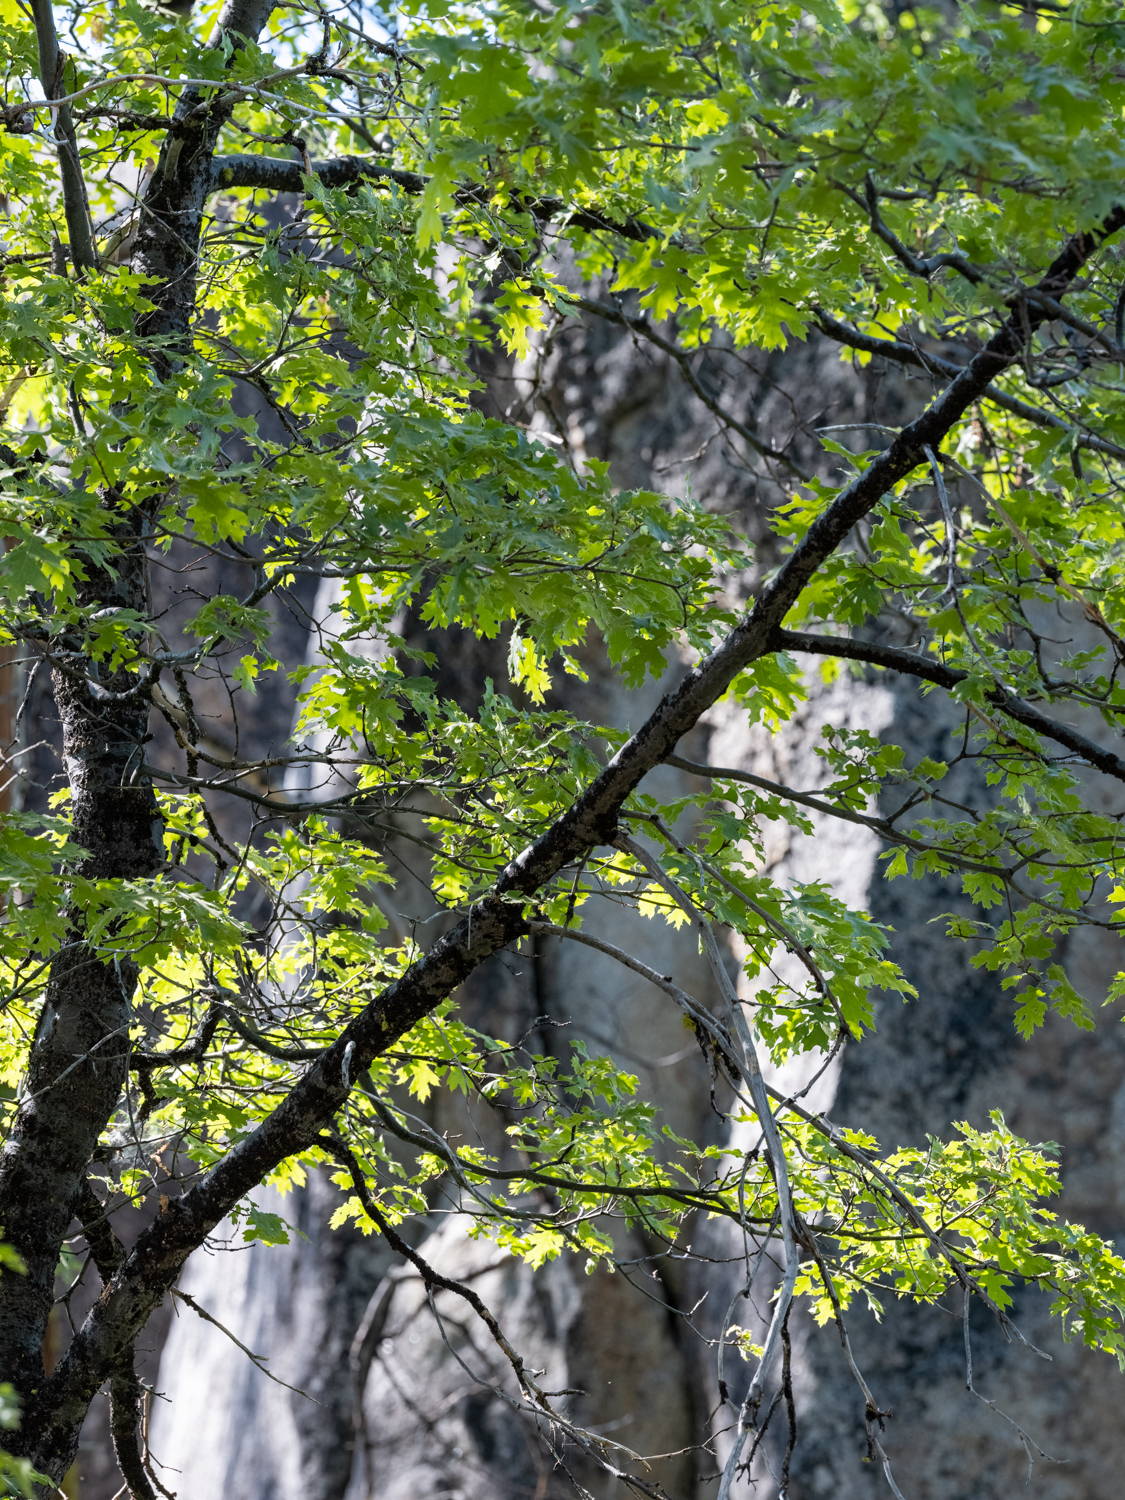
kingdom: Plantae
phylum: Tracheophyta
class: Magnoliopsida
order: Fagales
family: Fagaceae
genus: Quercus
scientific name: Quercus kelloggii
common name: California black oak
